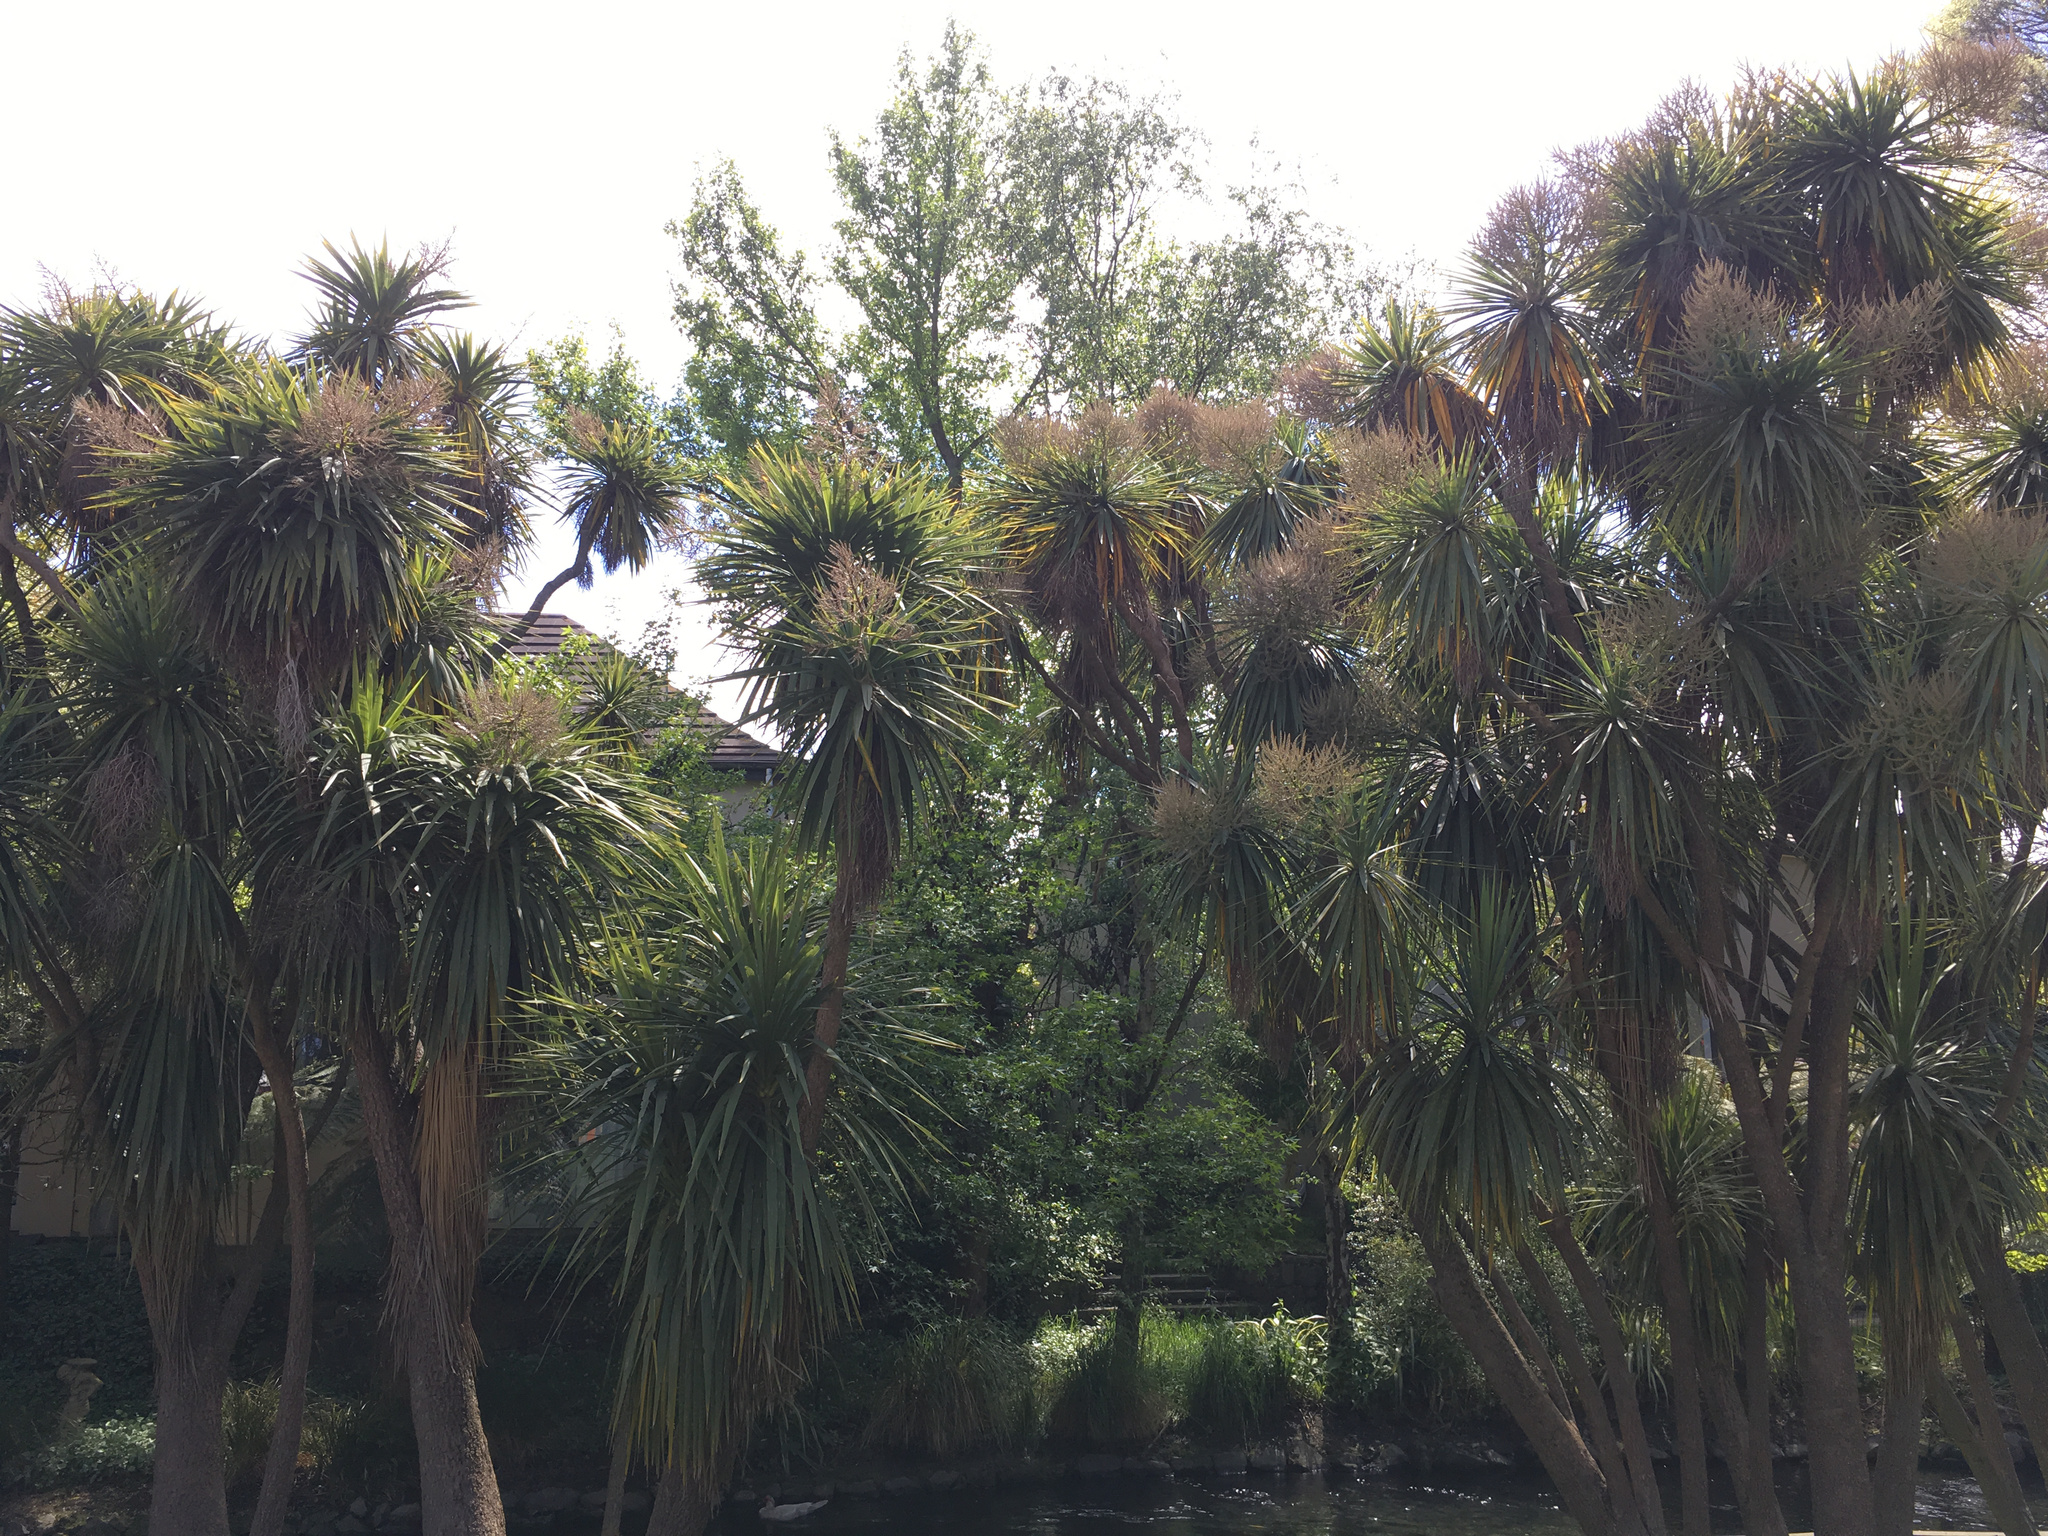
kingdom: Plantae
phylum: Tracheophyta
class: Liliopsida
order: Asparagales
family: Asparagaceae
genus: Cordyline
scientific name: Cordyline australis
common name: Cabbage-palm
